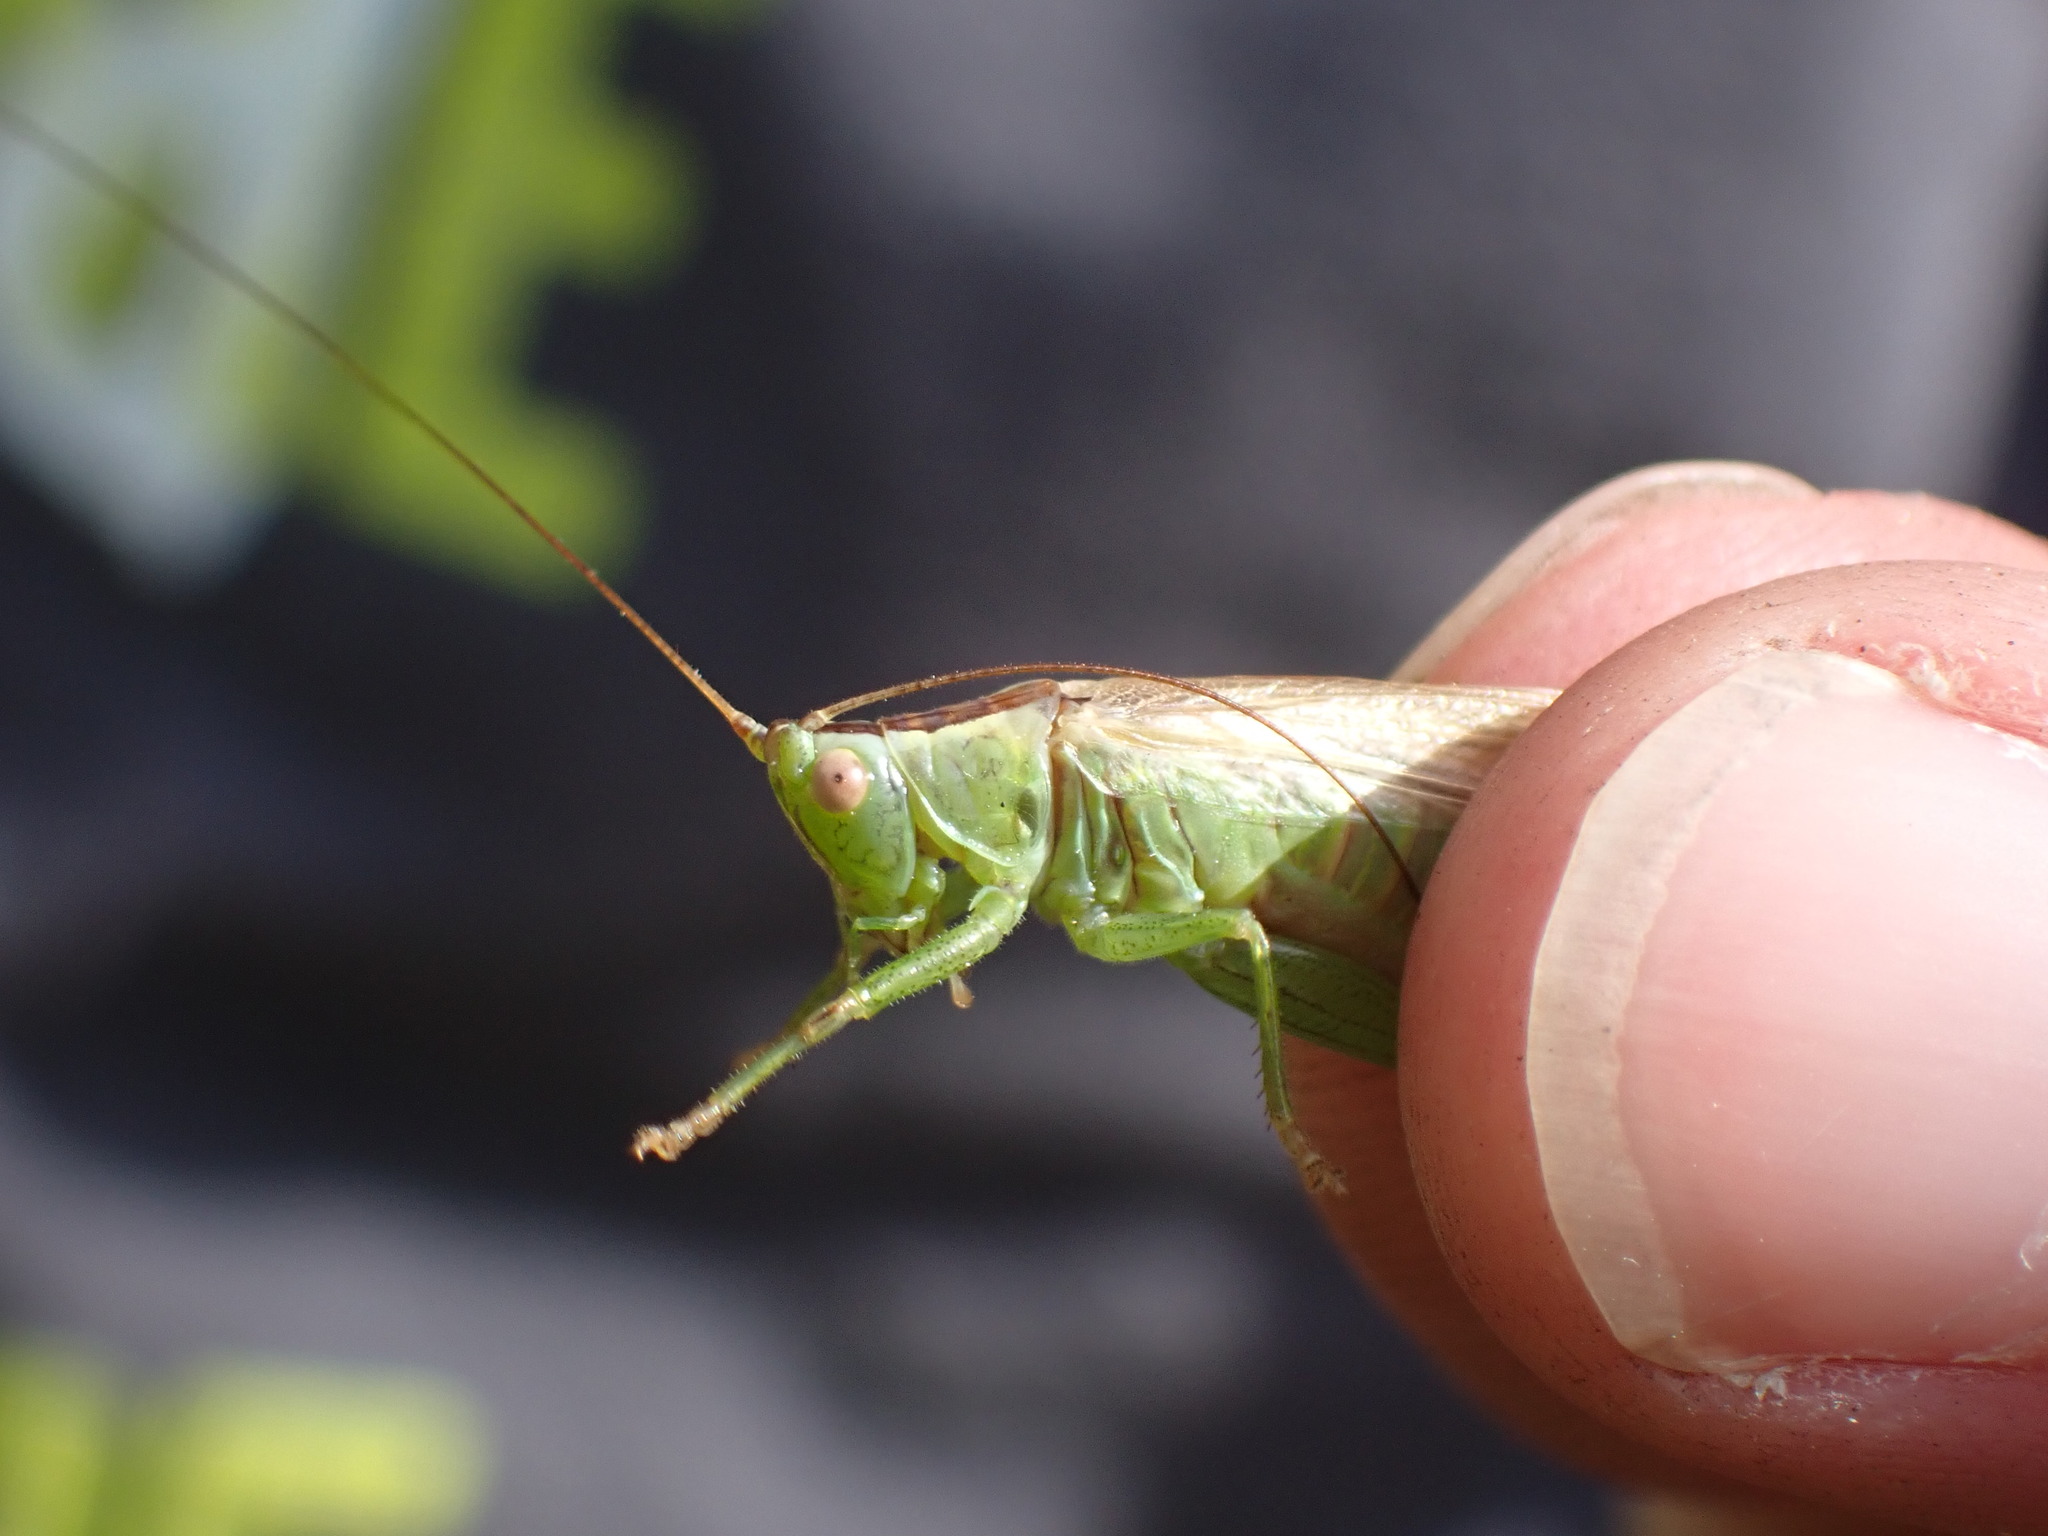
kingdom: Animalia
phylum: Arthropoda
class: Insecta
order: Orthoptera
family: Tettigoniidae
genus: Conocephalus
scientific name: Conocephalus fuscus
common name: Long-winged conehead
